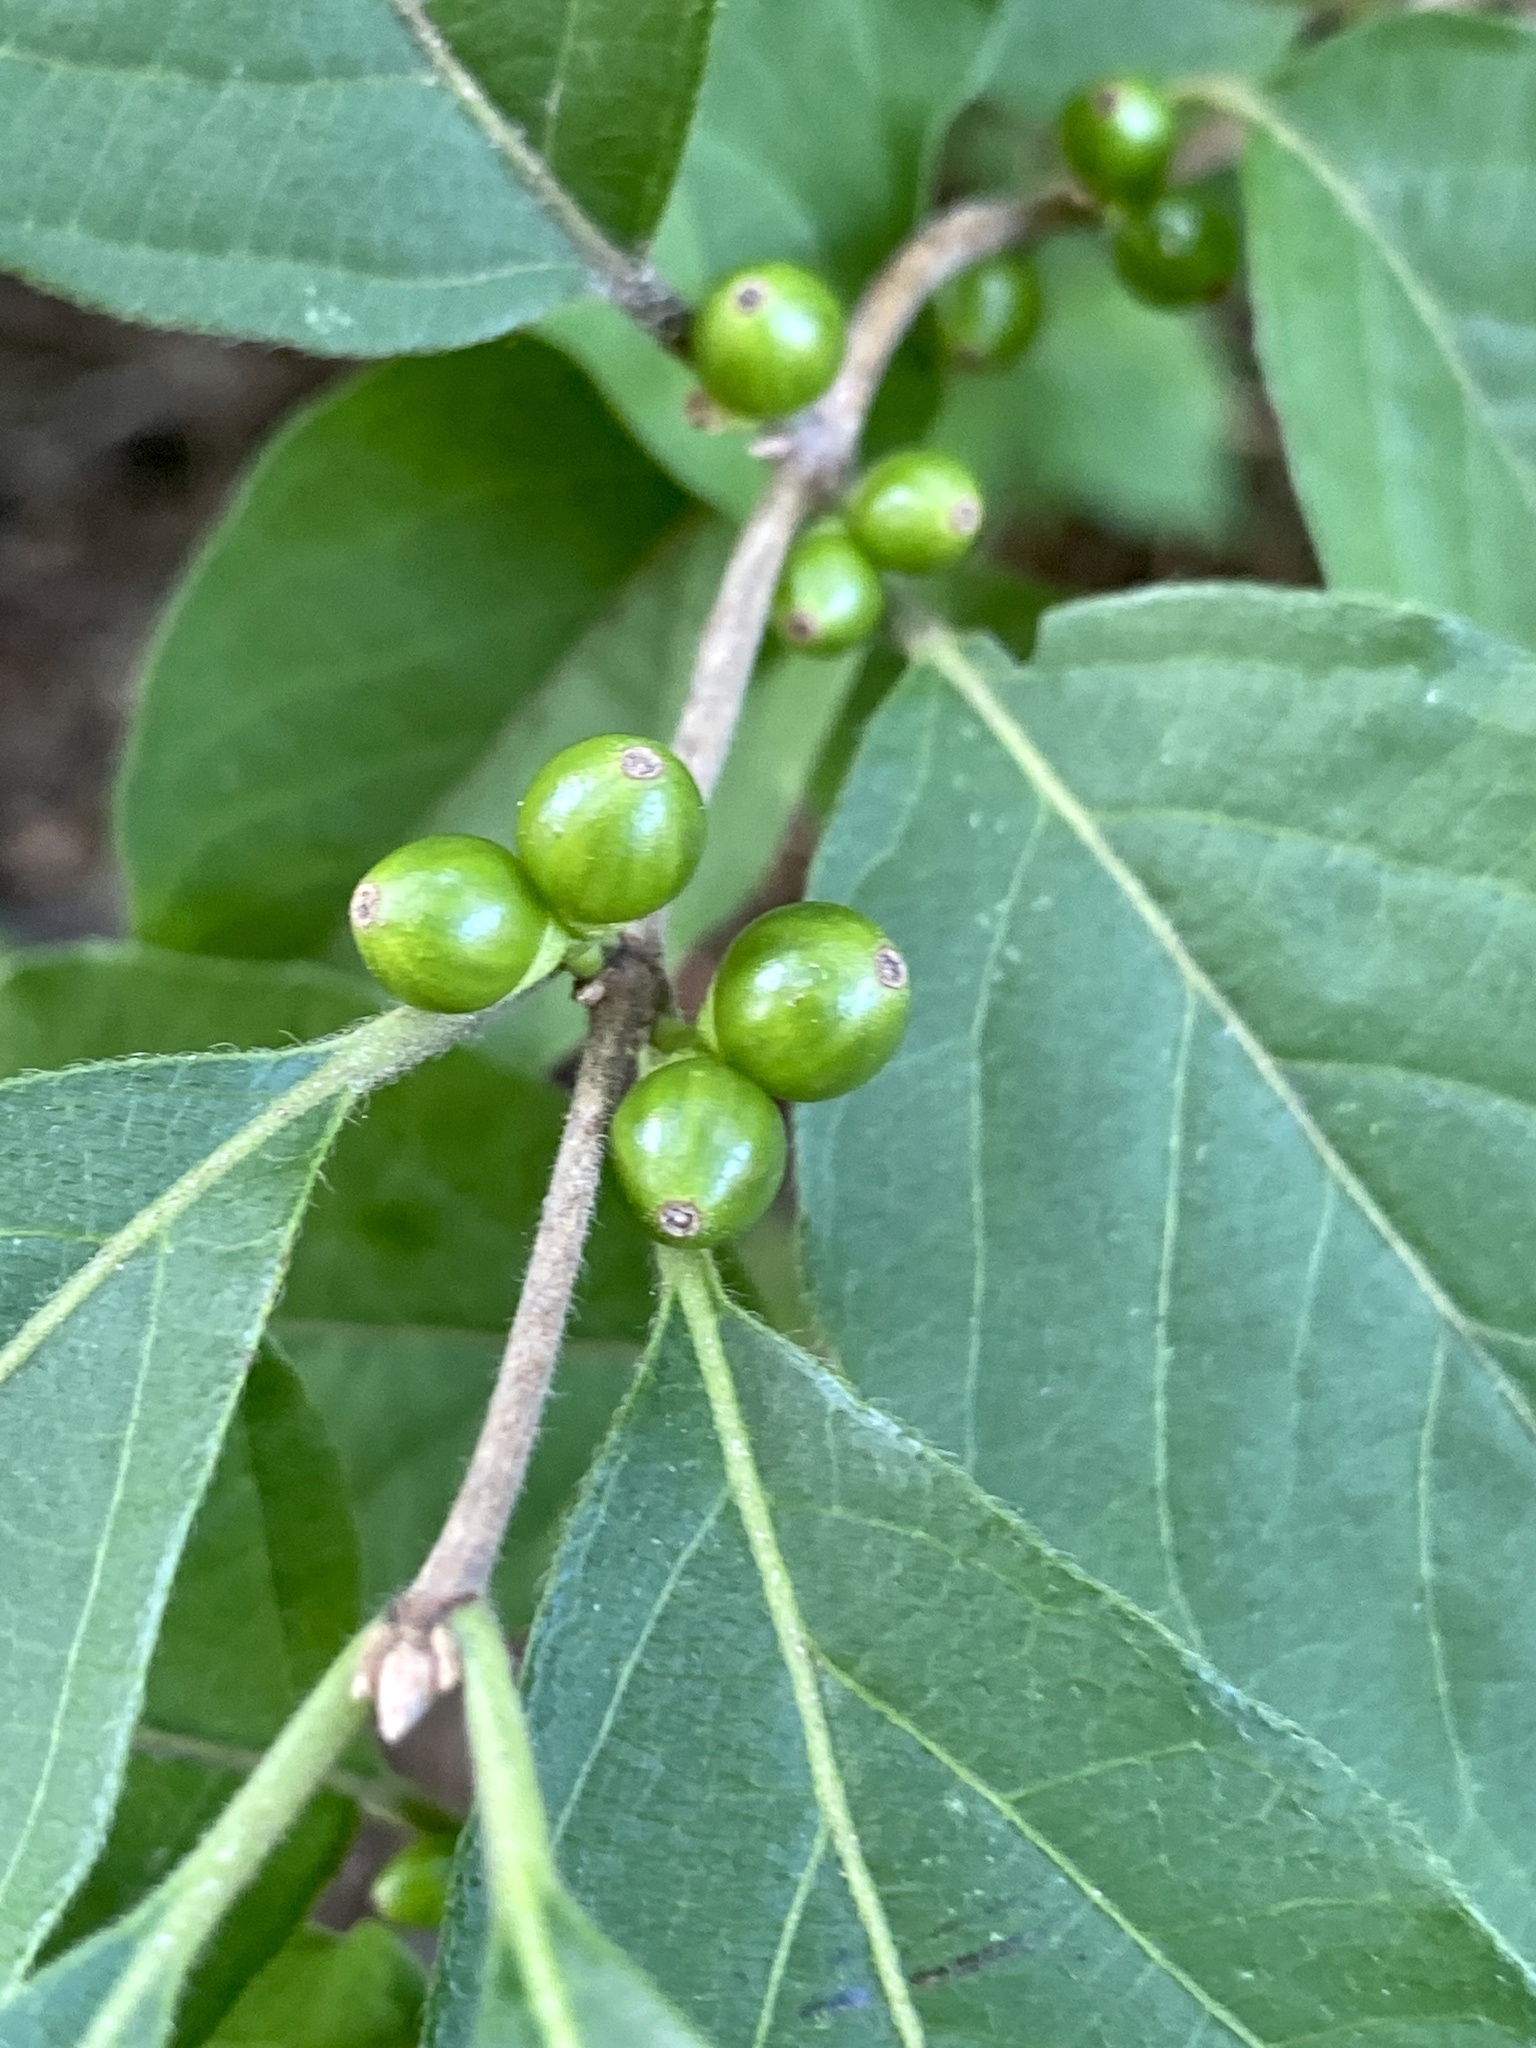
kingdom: Plantae
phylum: Tracheophyta
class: Magnoliopsida
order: Dipsacales
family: Caprifoliaceae
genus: Lonicera
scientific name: Lonicera maackii
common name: Amur honeysuckle
